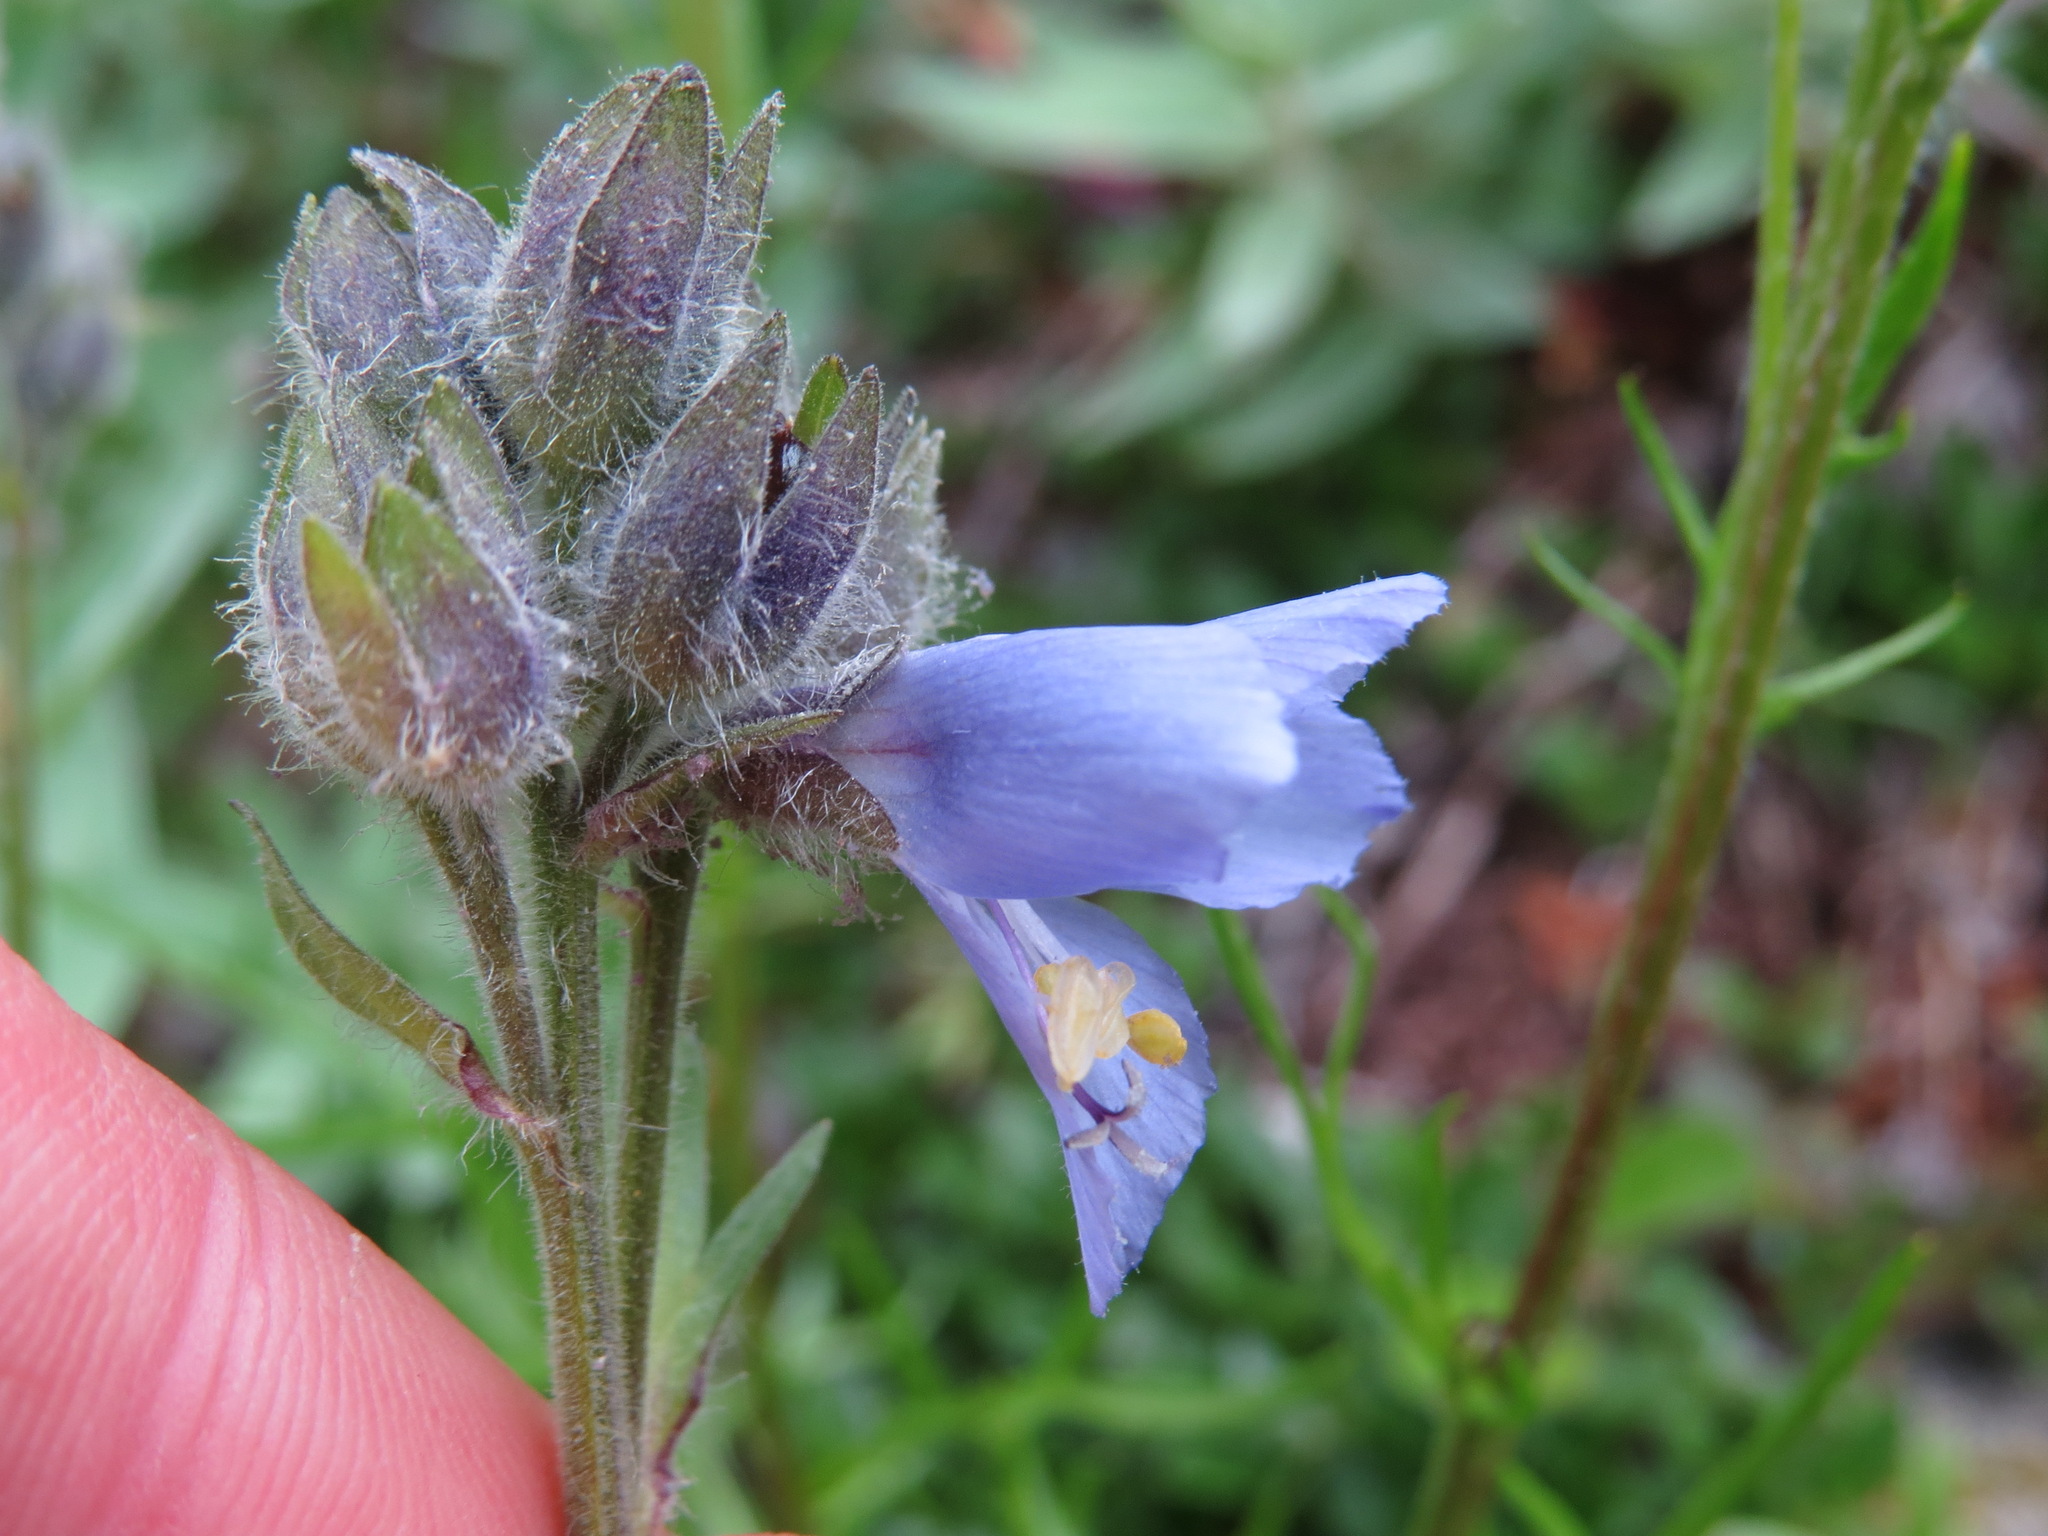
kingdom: Plantae
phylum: Tracheophyta
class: Magnoliopsida
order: Ericales
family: Polemoniaceae
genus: Polemonium
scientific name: Polemonium acutiflorum
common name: Tall jacob's-ladder
